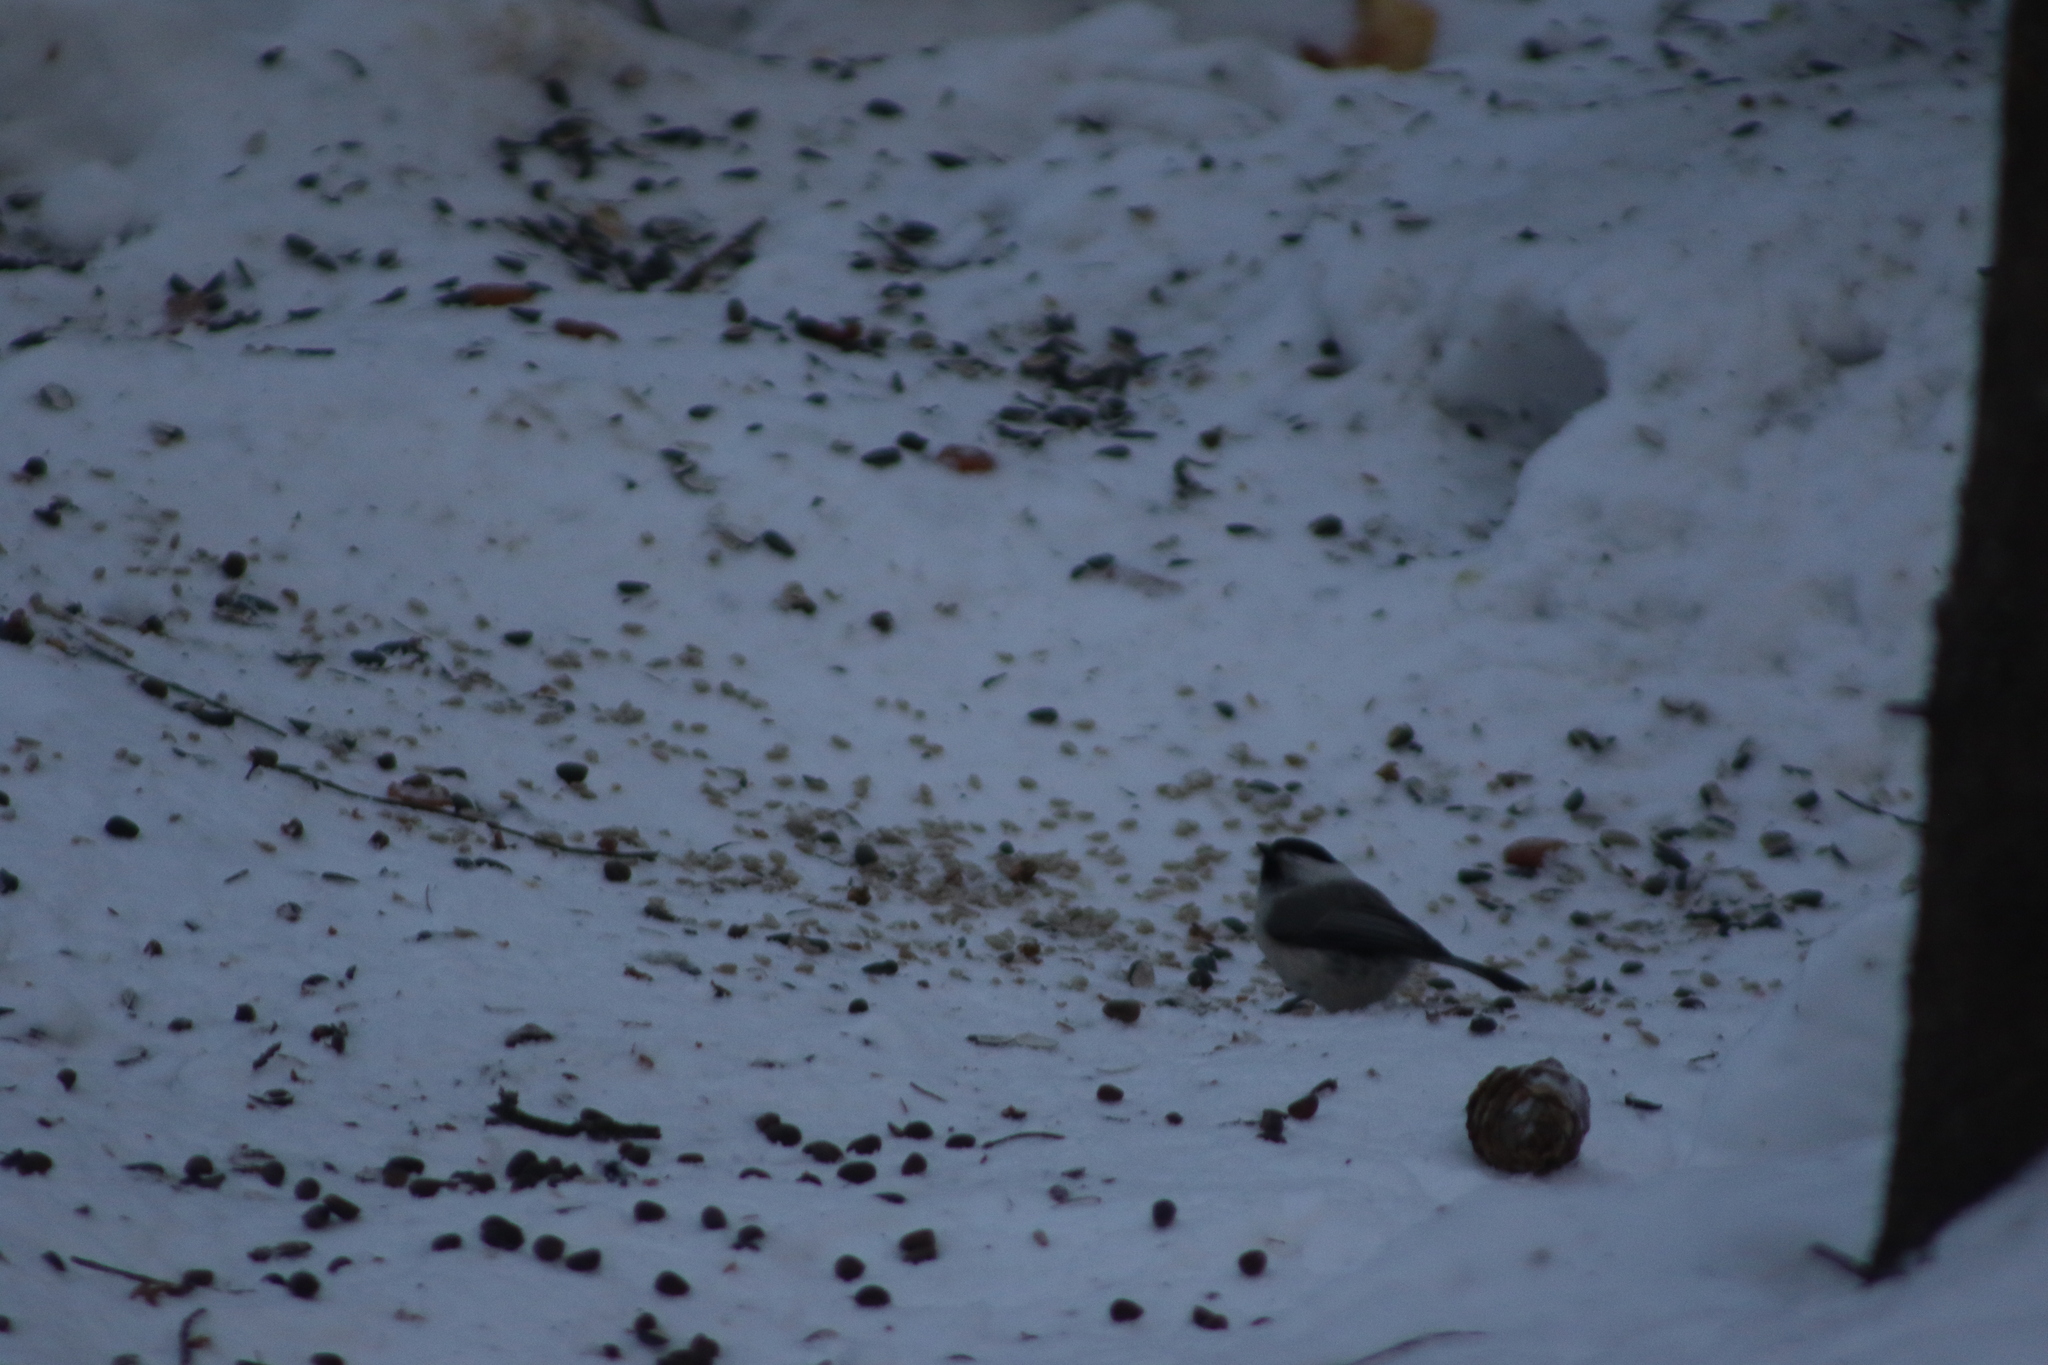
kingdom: Animalia
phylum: Chordata
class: Aves
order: Passeriformes
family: Paridae
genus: Poecile
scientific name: Poecile montanus
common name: Willow tit
